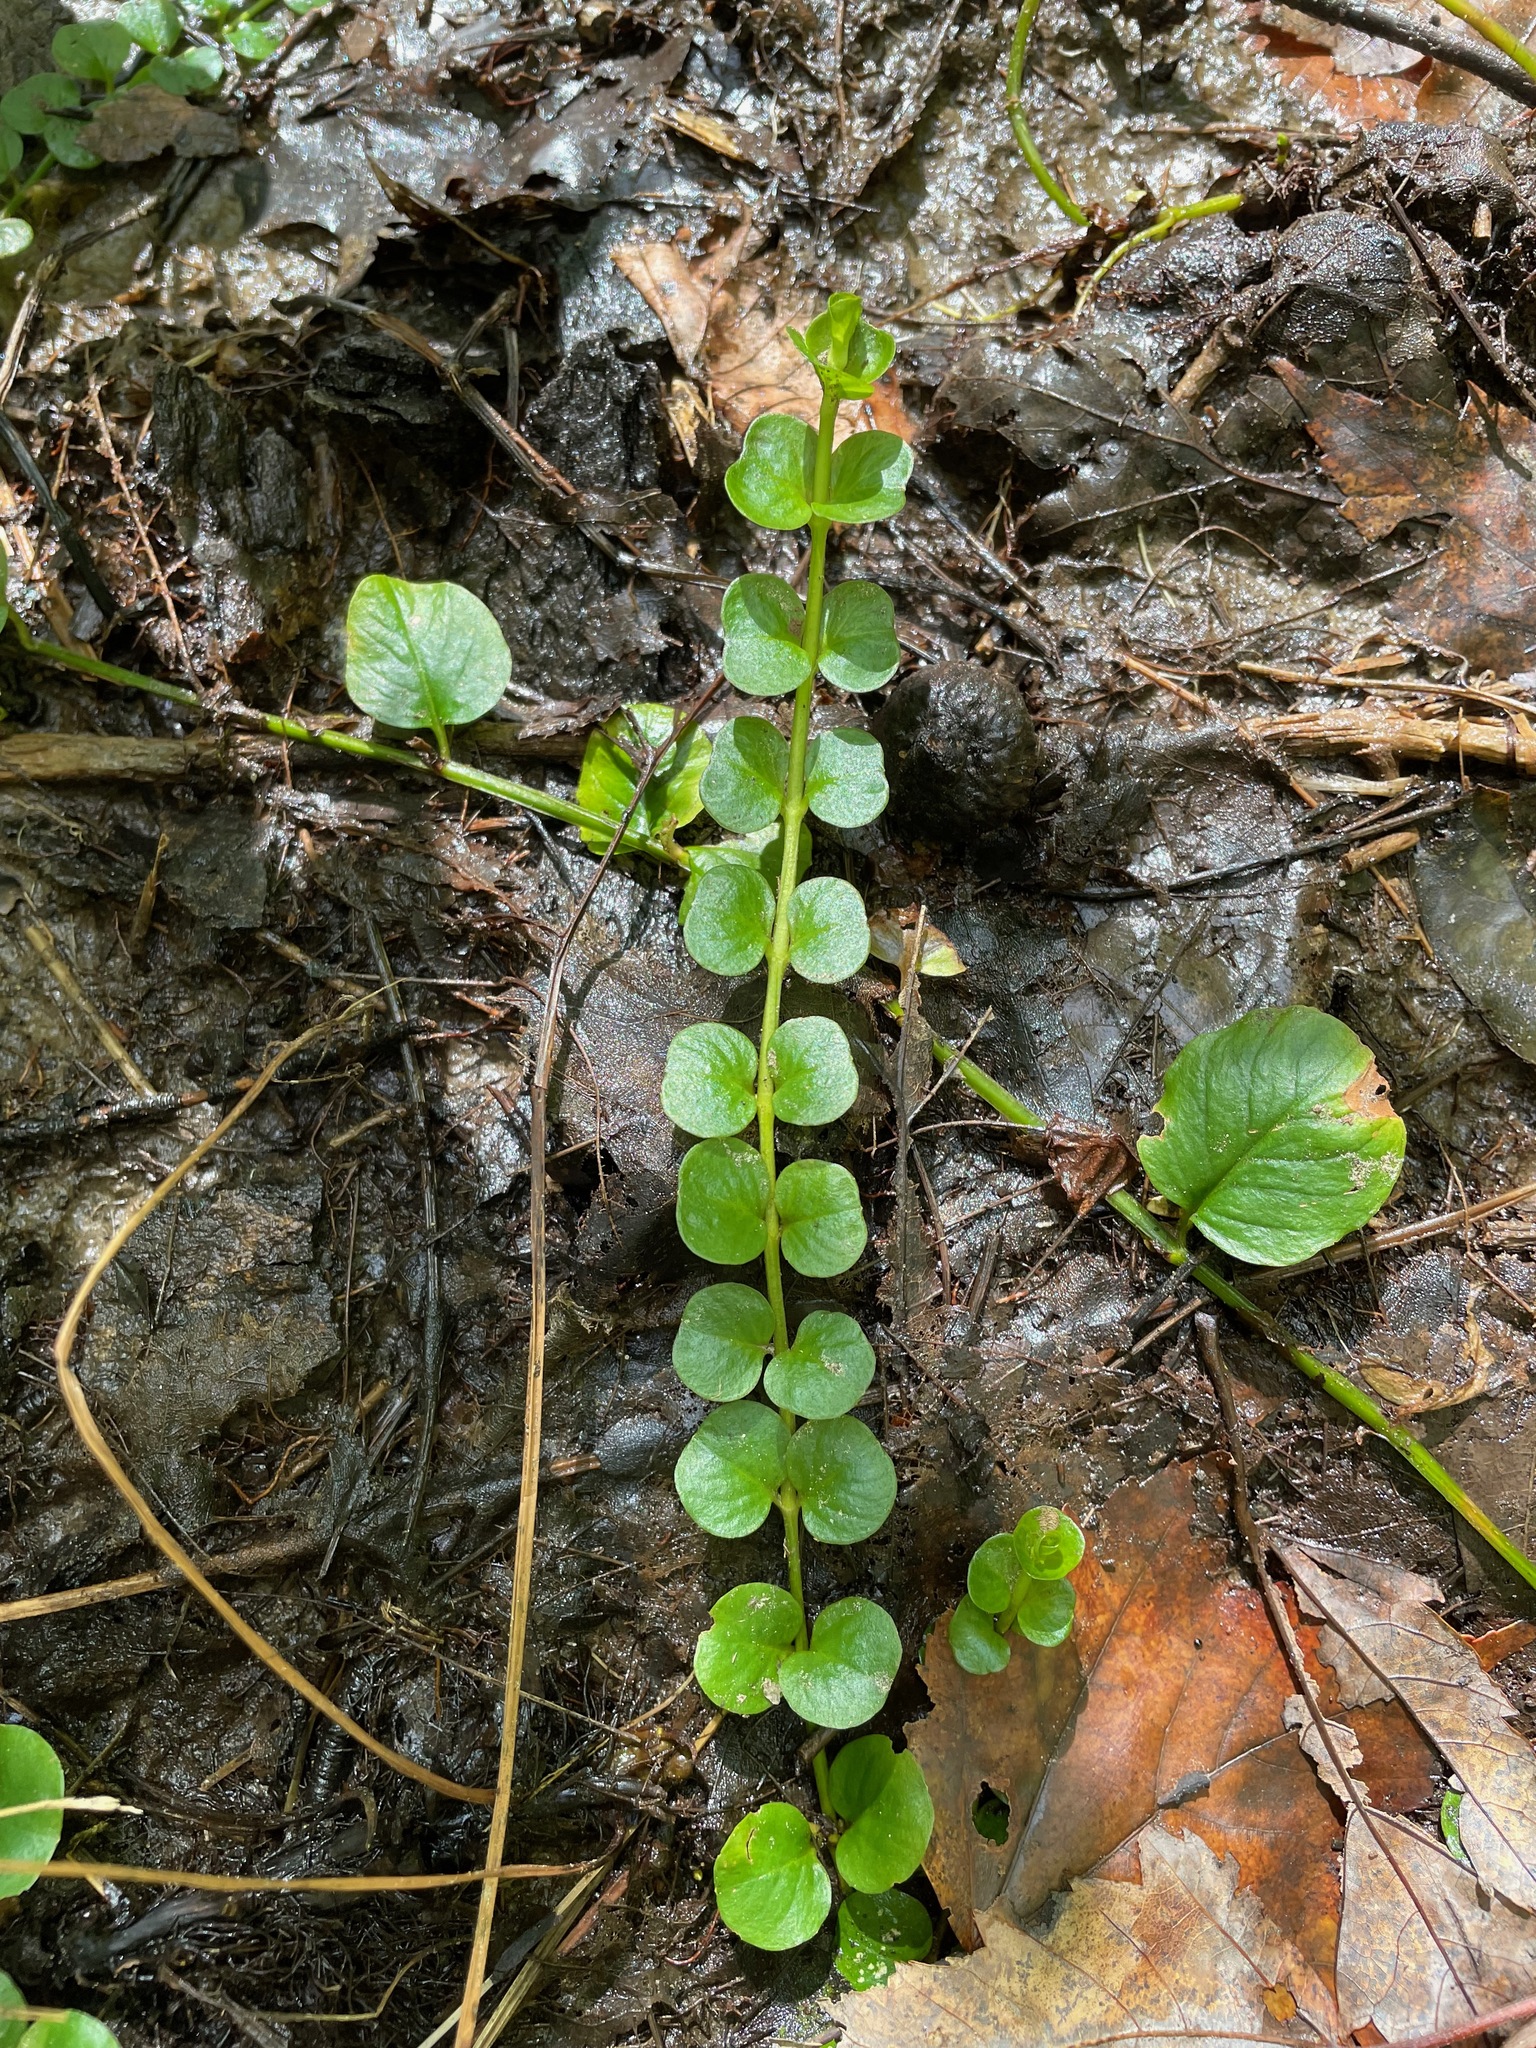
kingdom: Plantae
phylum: Tracheophyta
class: Magnoliopsida
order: Ericales
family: Primulaceae
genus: Lysimachia
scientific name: Lysimachia nummularia
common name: Moneywort
